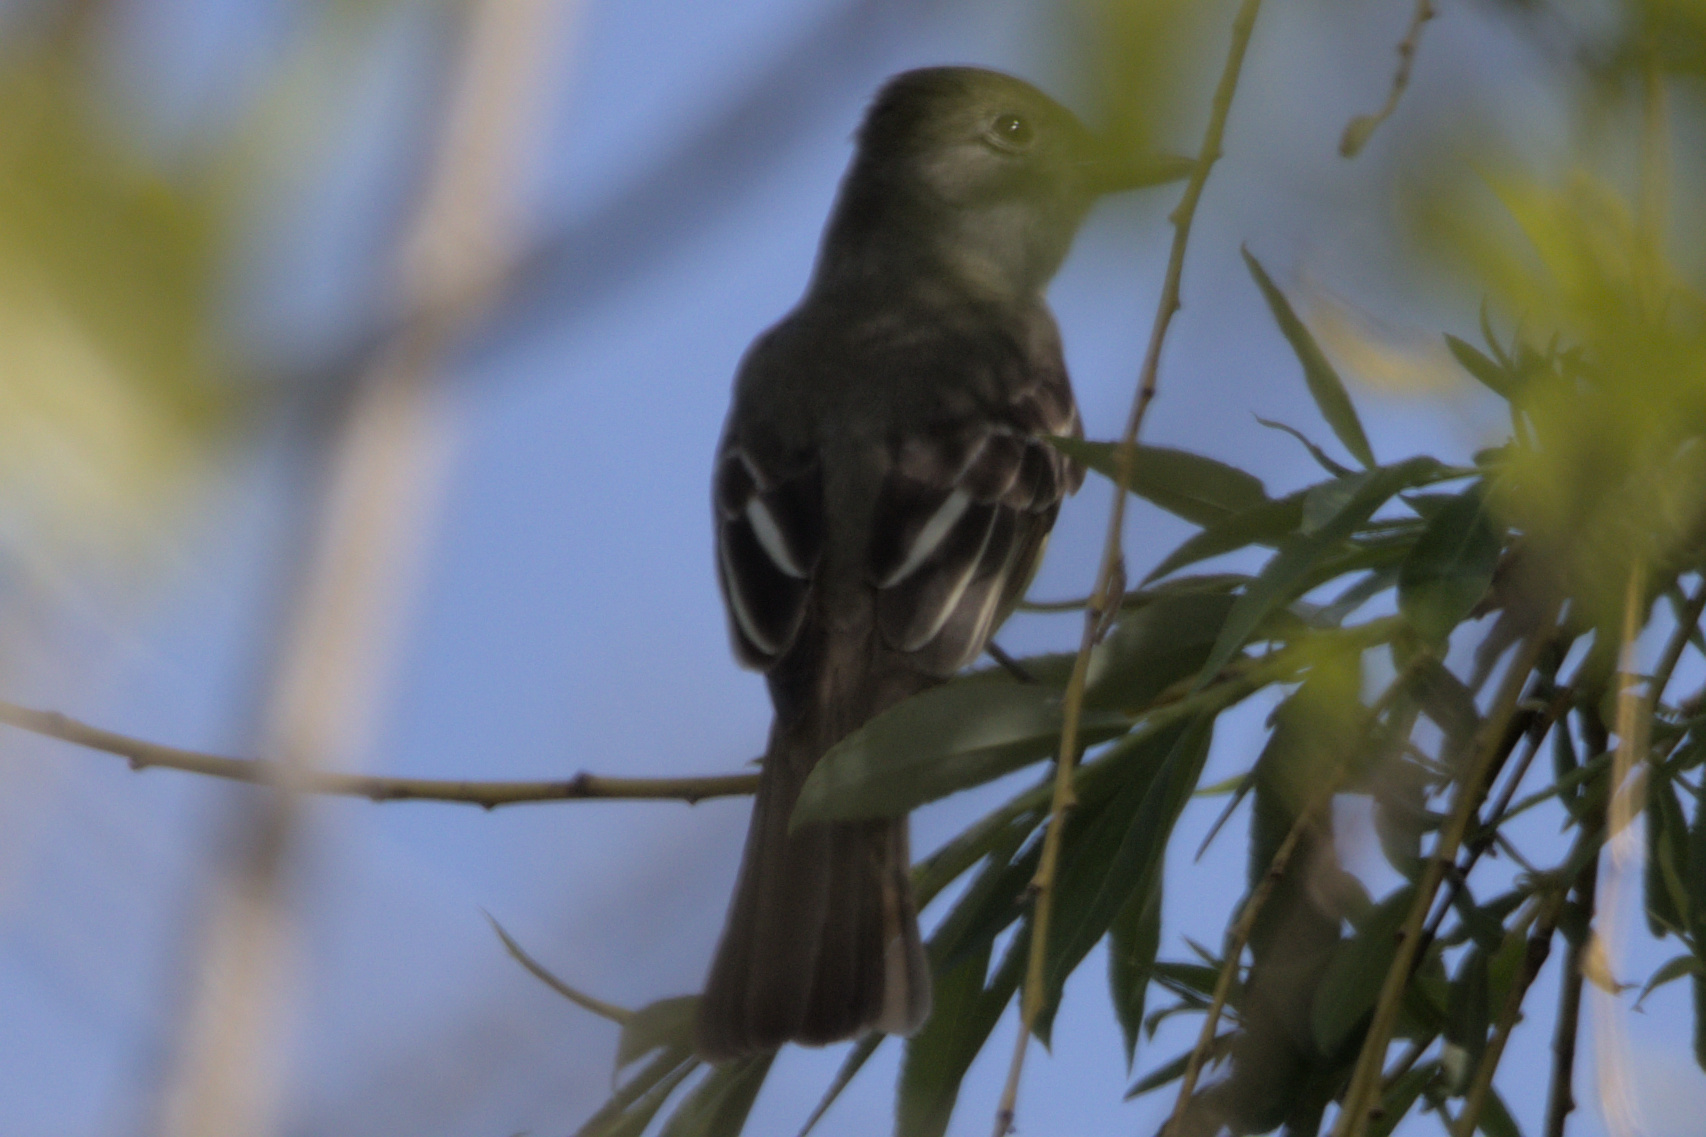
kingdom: Animalia
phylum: Chordata
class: Aves
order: Passeriformes
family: Tyrannidae
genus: Myiarchus
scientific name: Myiarchus crinitus
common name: Great crested flycatcher
